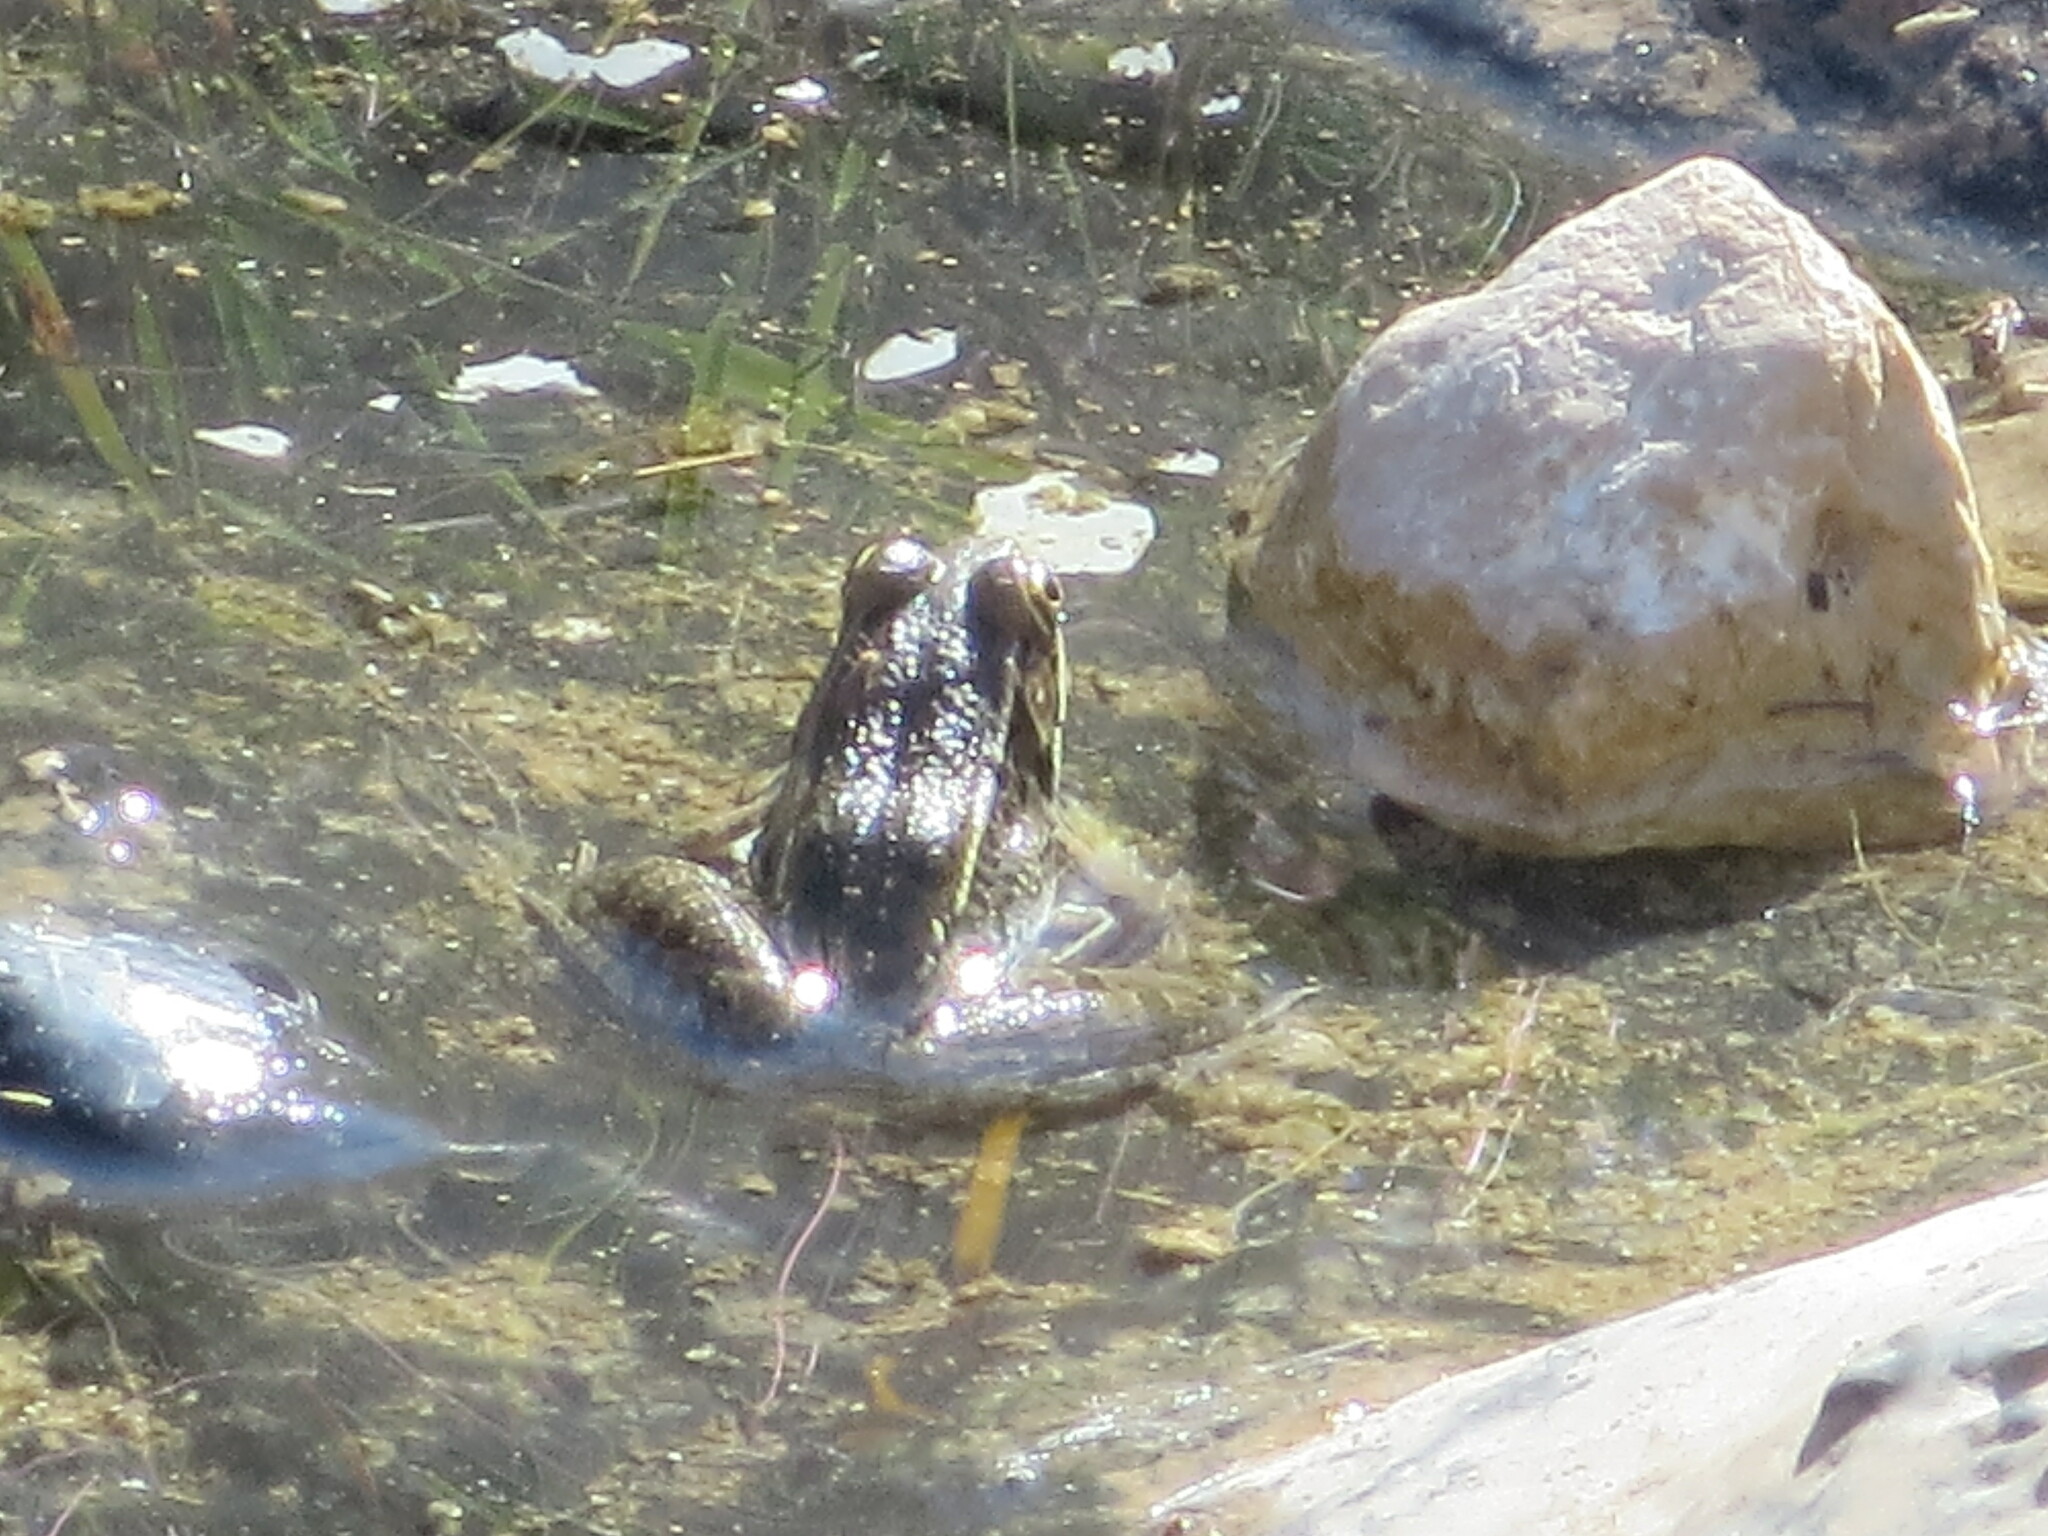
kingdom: Animalia
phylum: Chordata
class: Amphibia
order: Anura
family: Ranidae
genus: Lithobates
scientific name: Lithobates berlandieri
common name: Rio grande leopard frog
